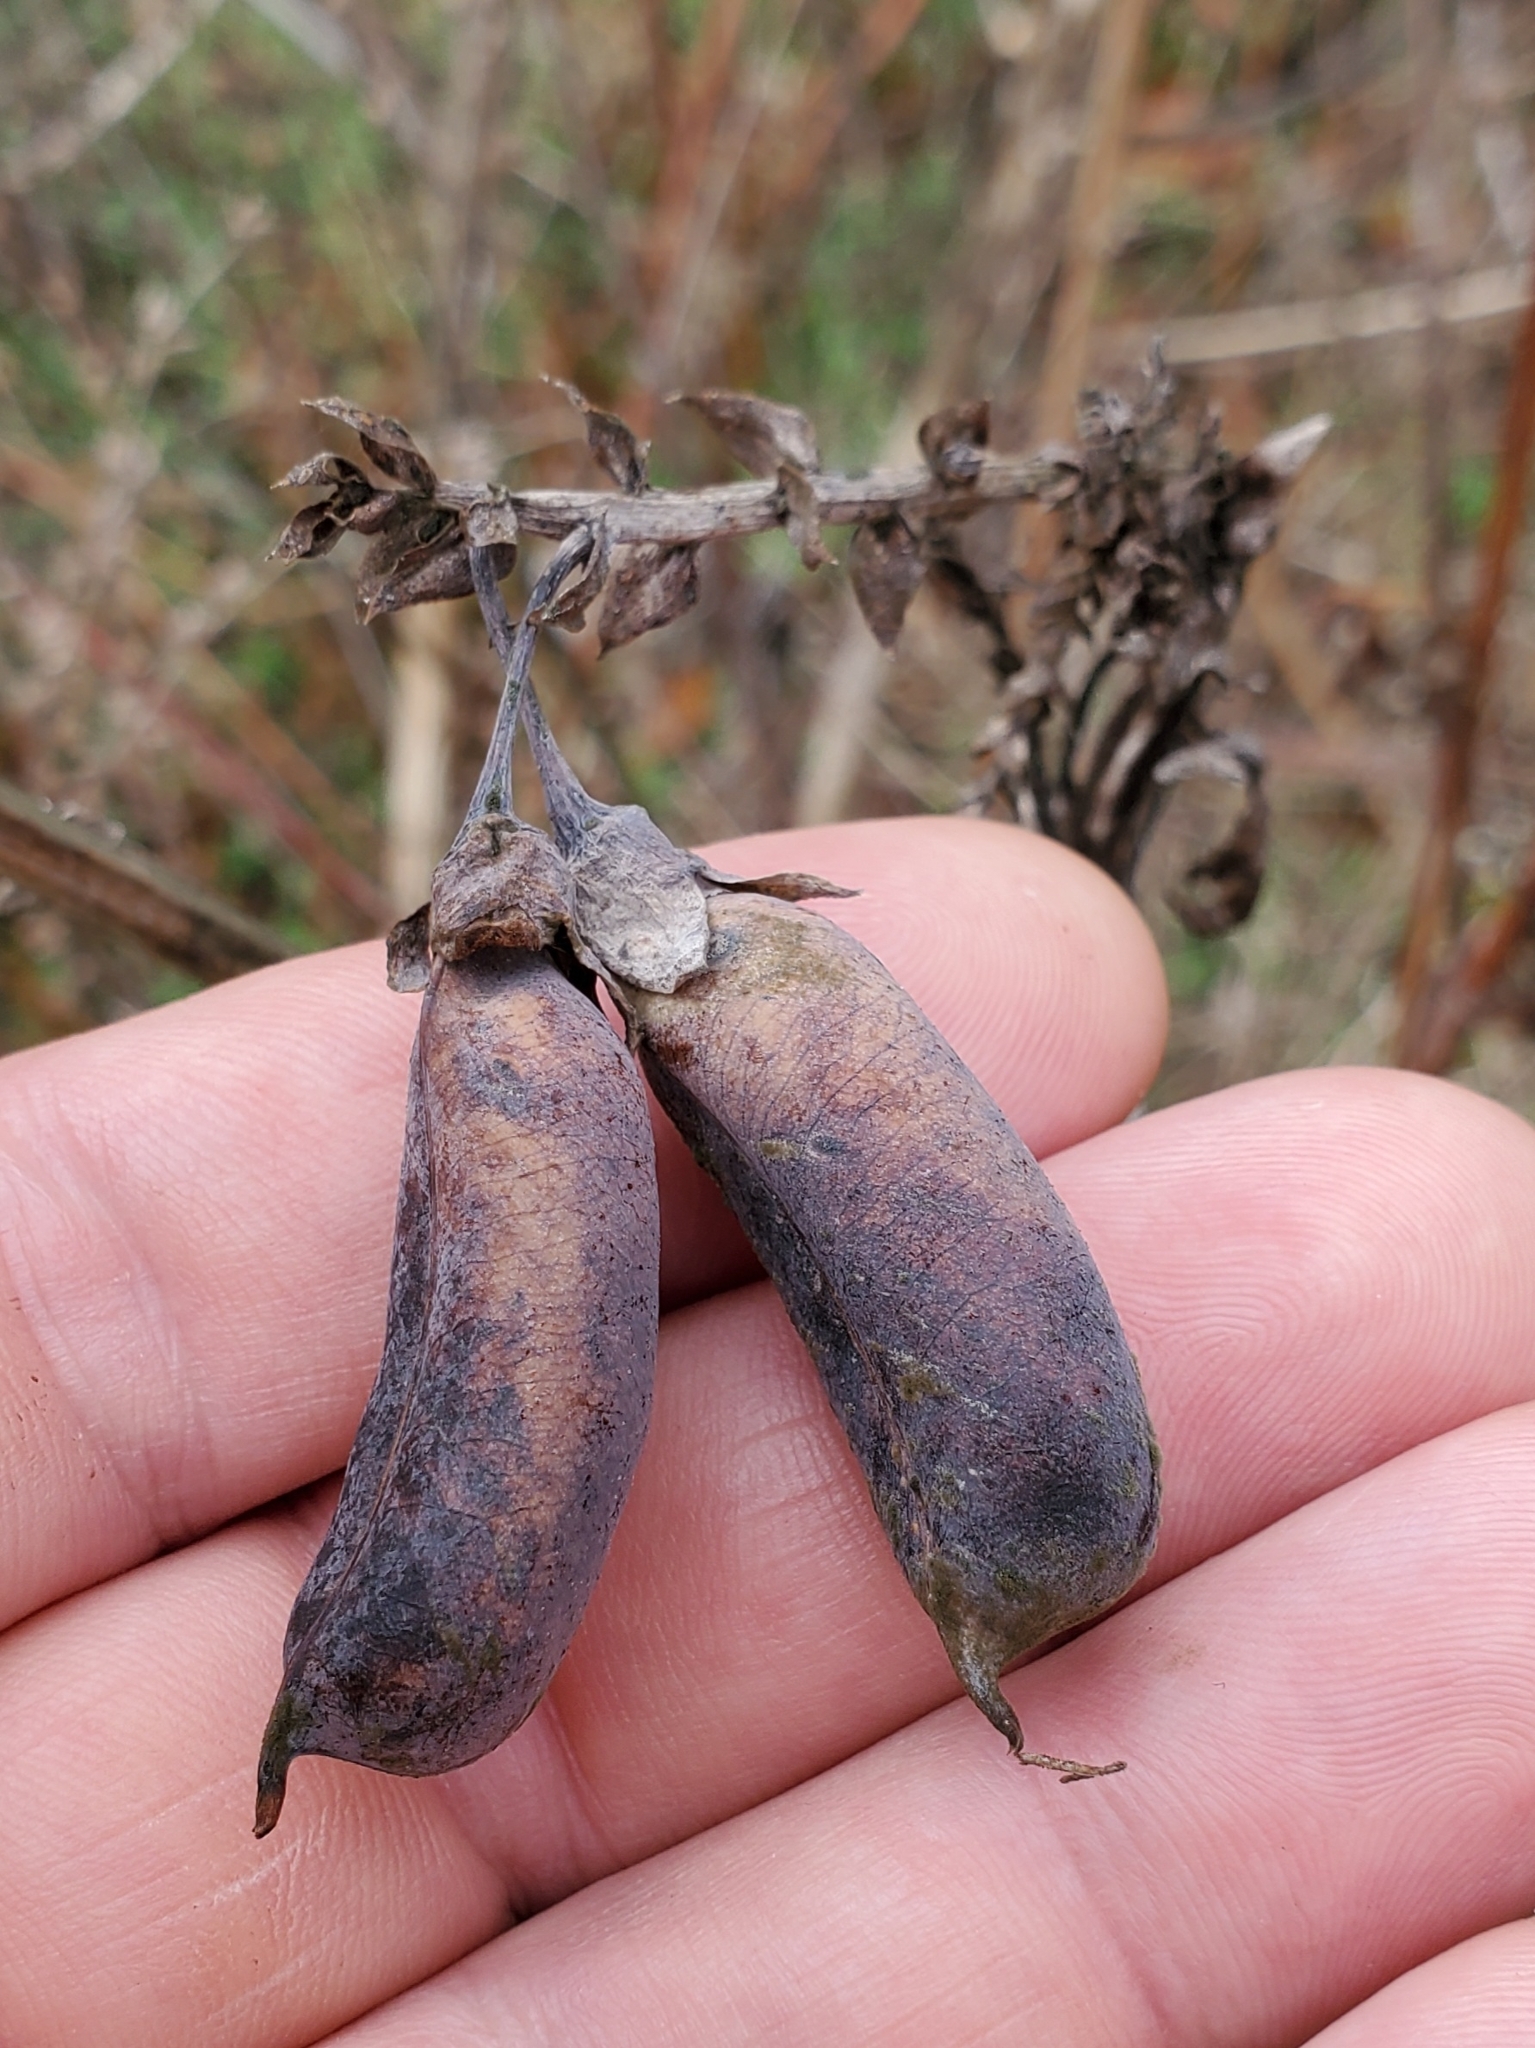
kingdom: Plantae
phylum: Tracheophyta
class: Magnoliopsida
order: Fabales
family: Fabaceae
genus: Crotalaria
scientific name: Crotalaria spectabilis
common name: Showy rattlebox
